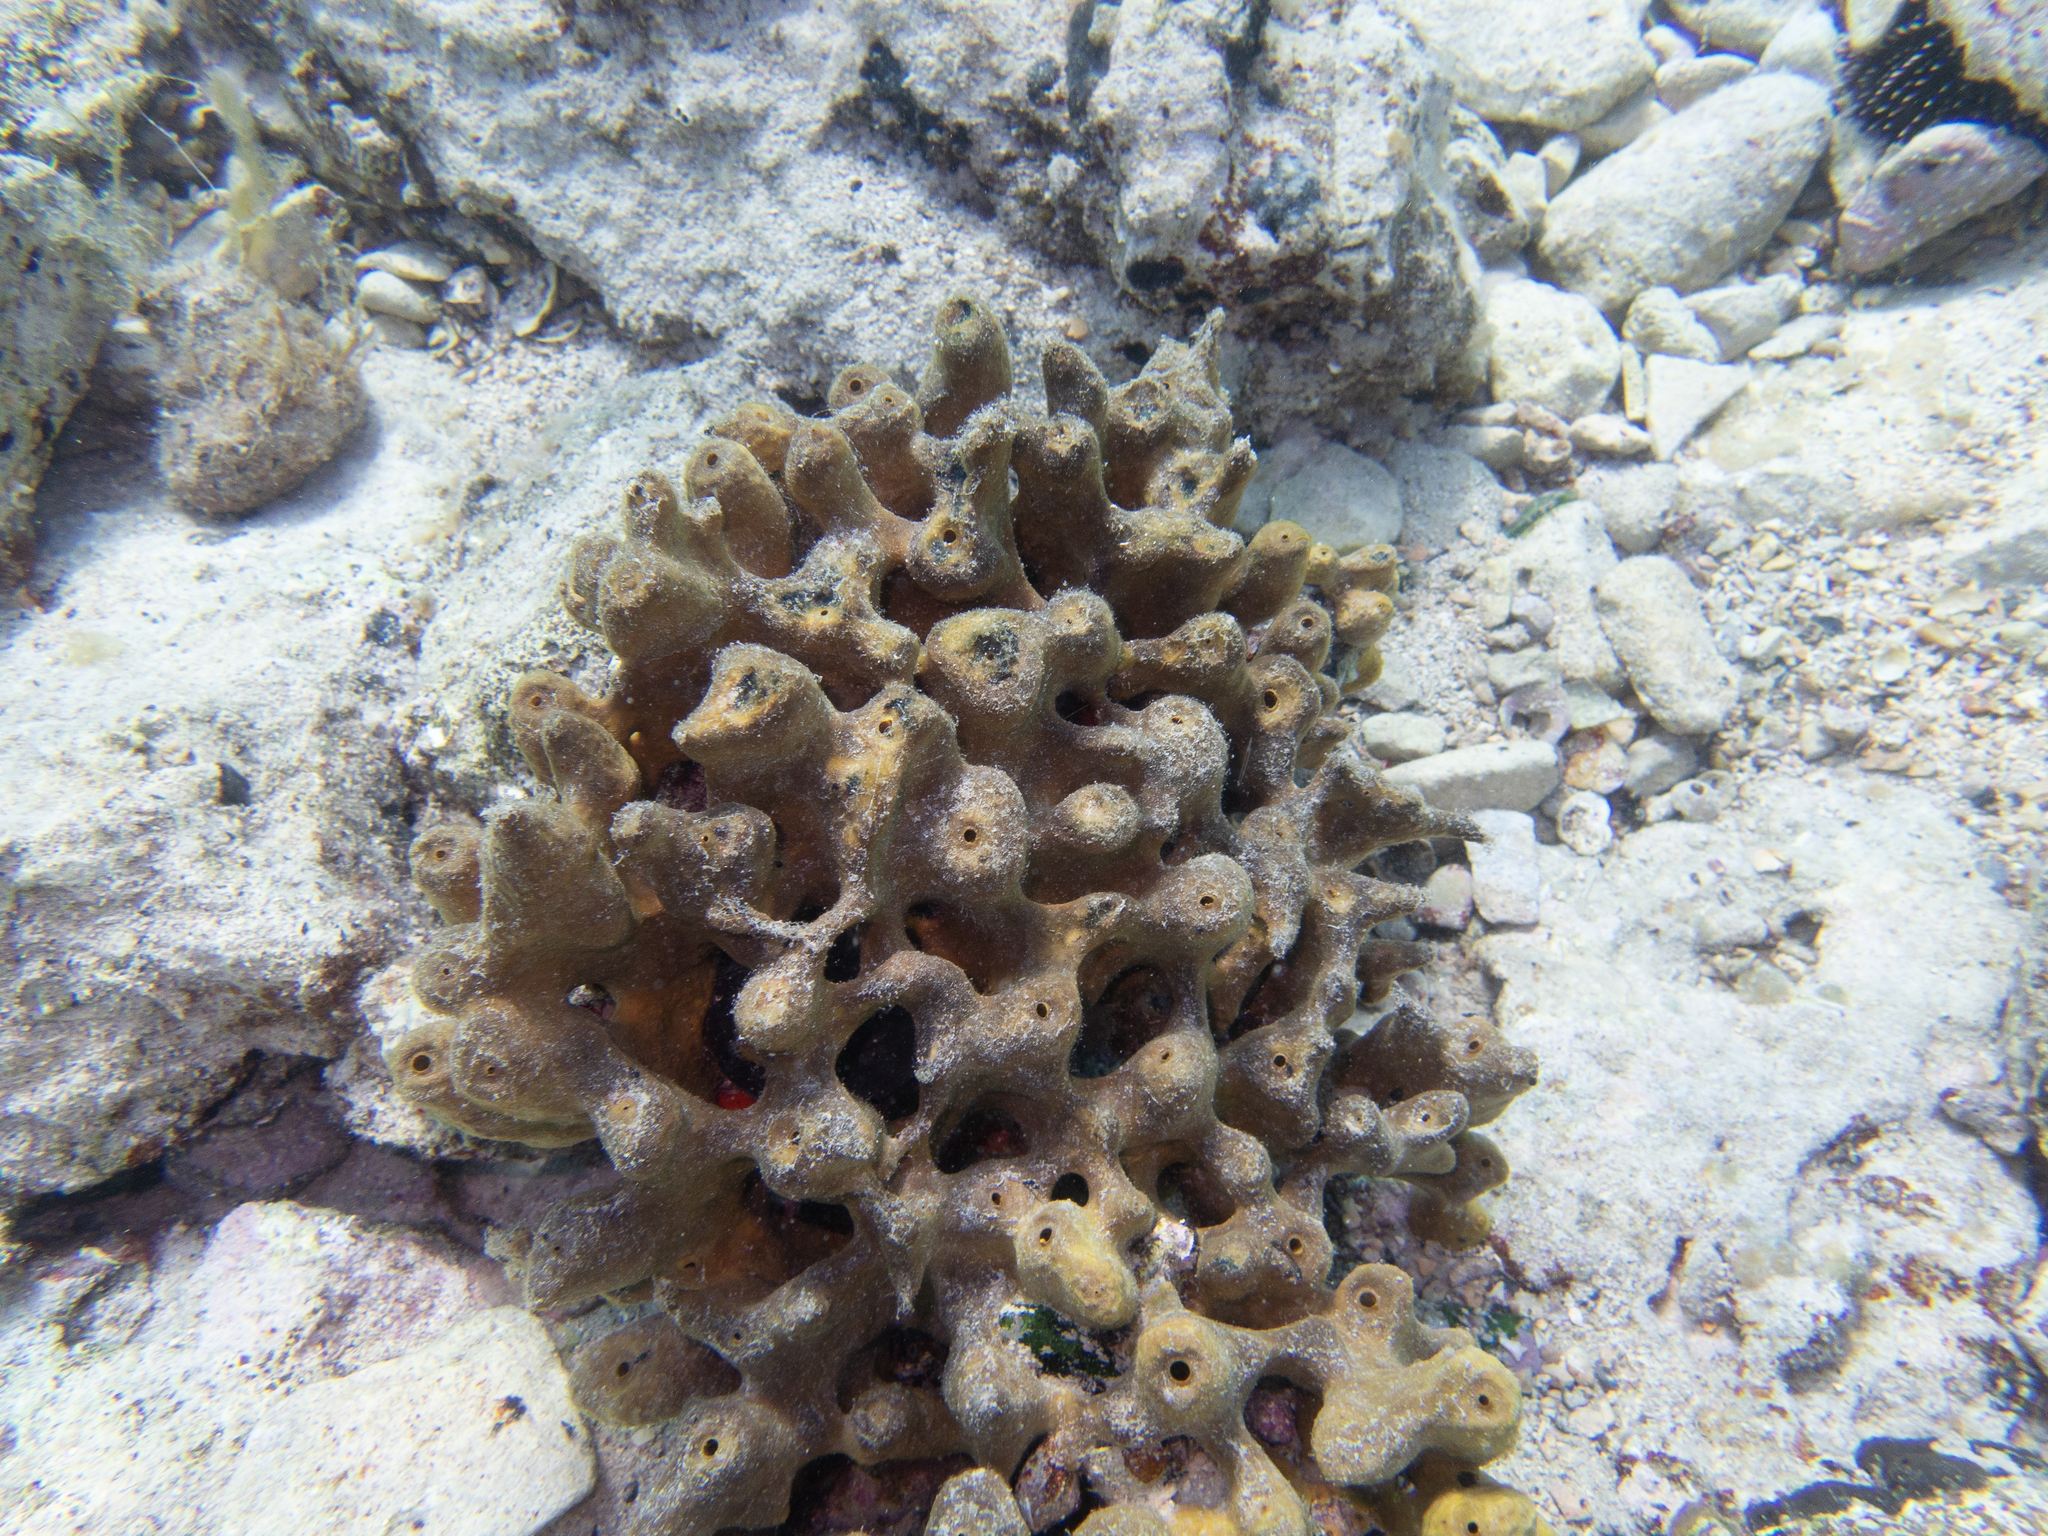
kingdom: Animalia
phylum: Porifera
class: Demospongiae
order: Verongiida
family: Aplysinidae
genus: Aplysina
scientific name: Aplysina aerophoba
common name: Aureate sponge
